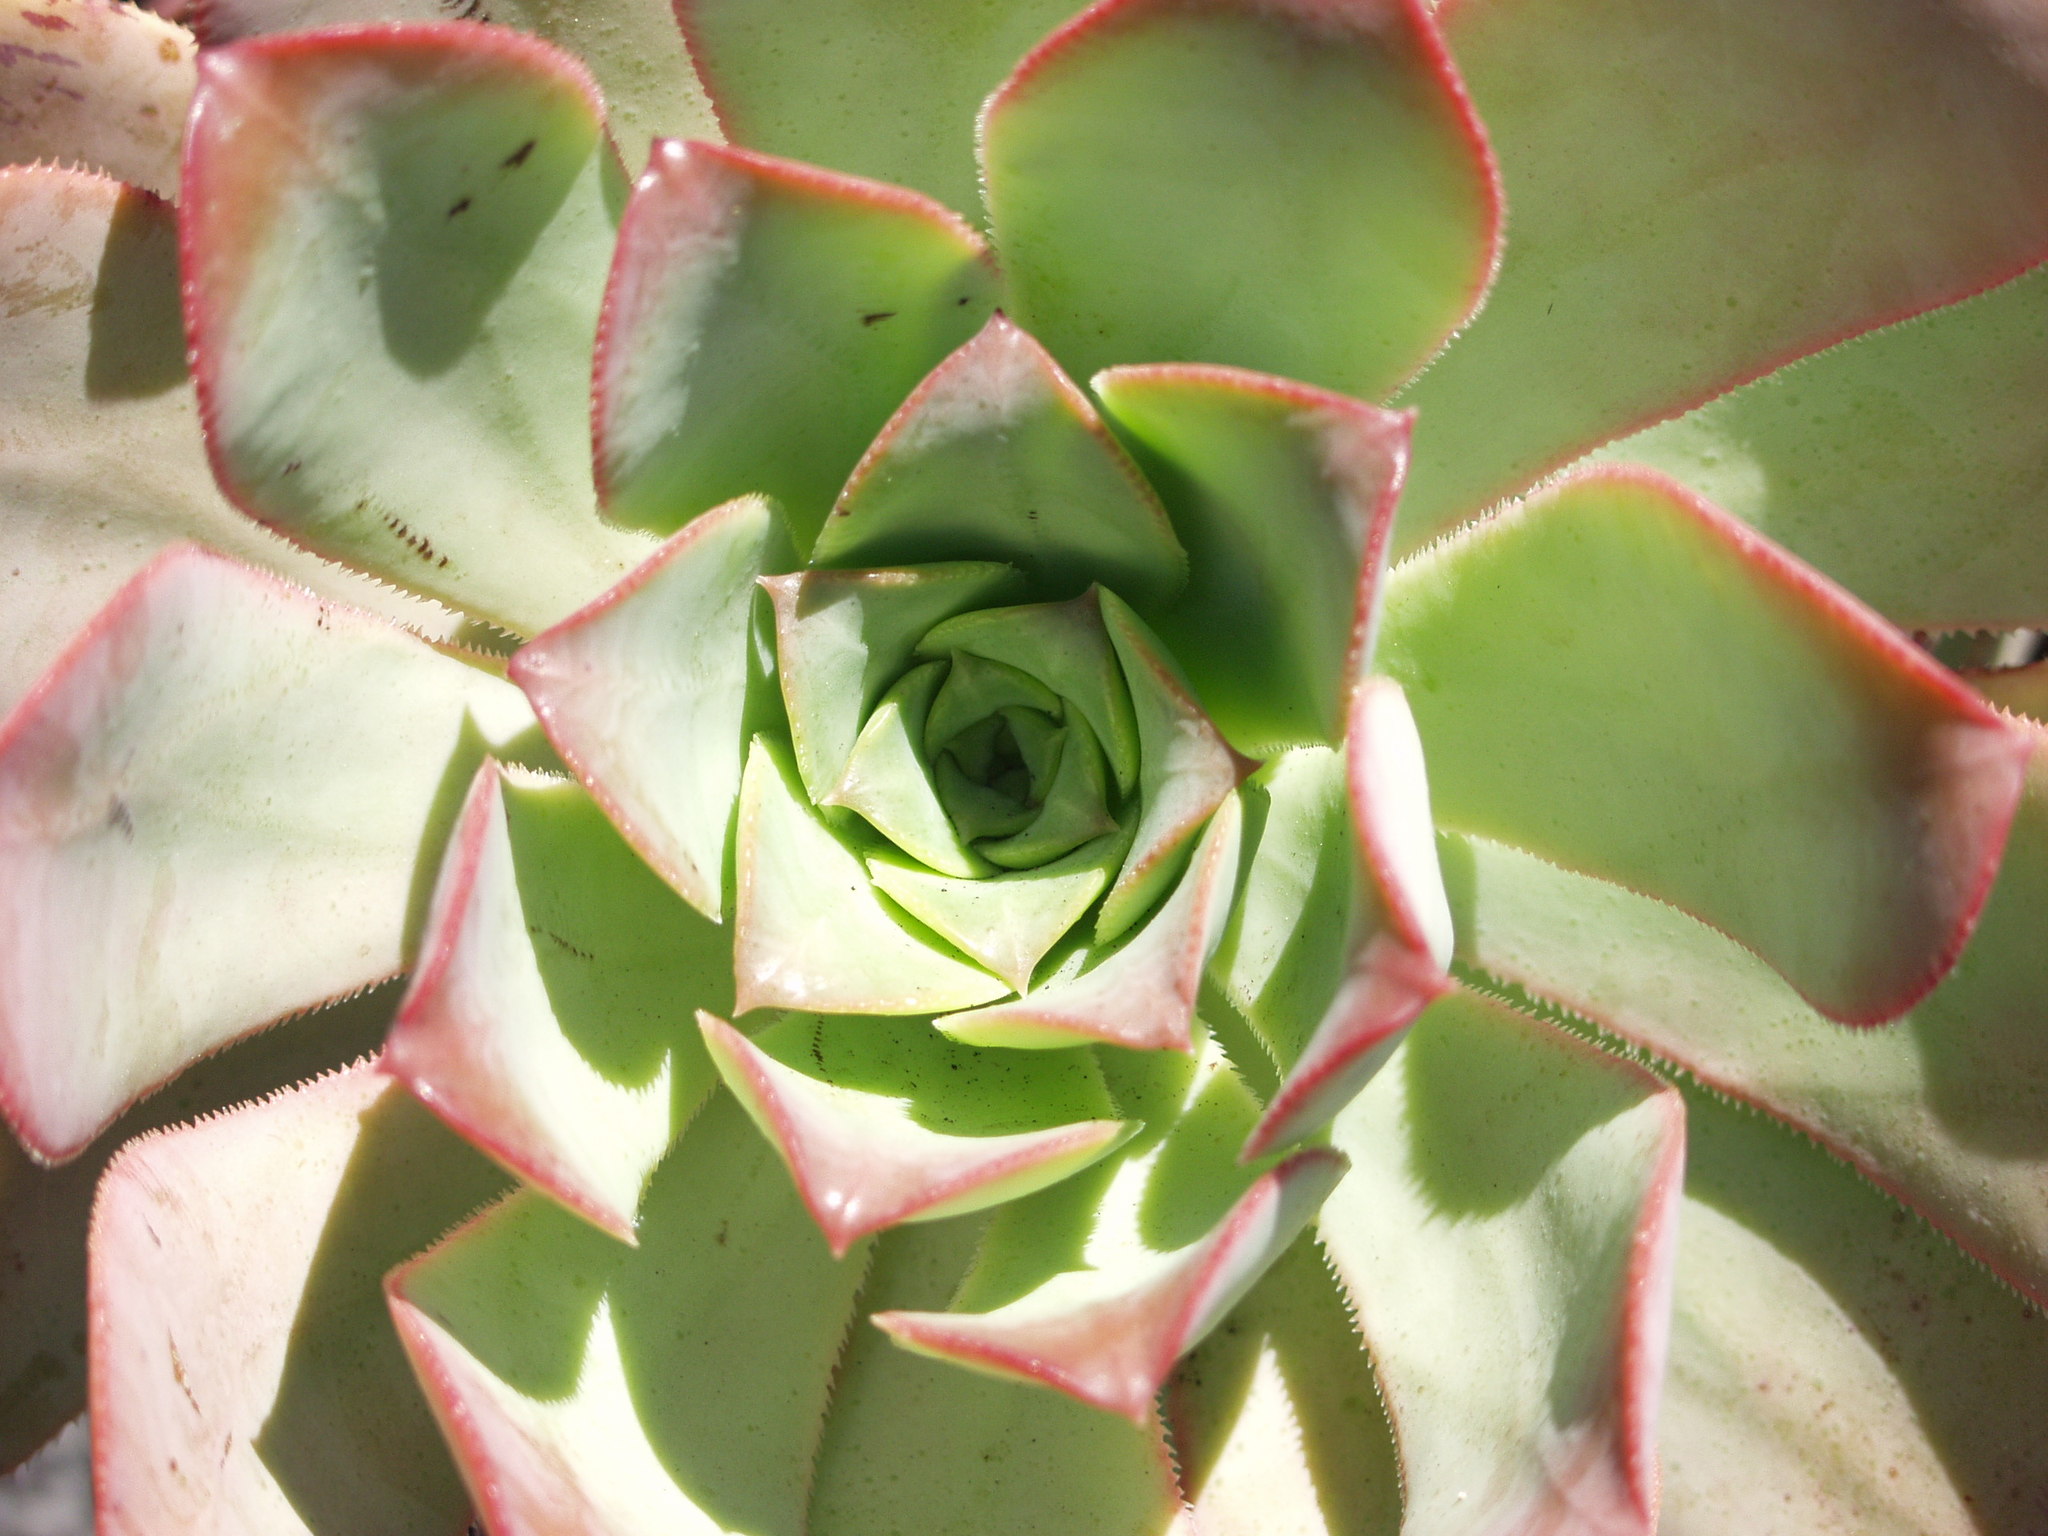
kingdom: Plantae
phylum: Tracheophyta
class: Magnoliopsida
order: Saxifragales
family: Crassulaceae
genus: Aeonium
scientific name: Aeonium davidbramwellii
